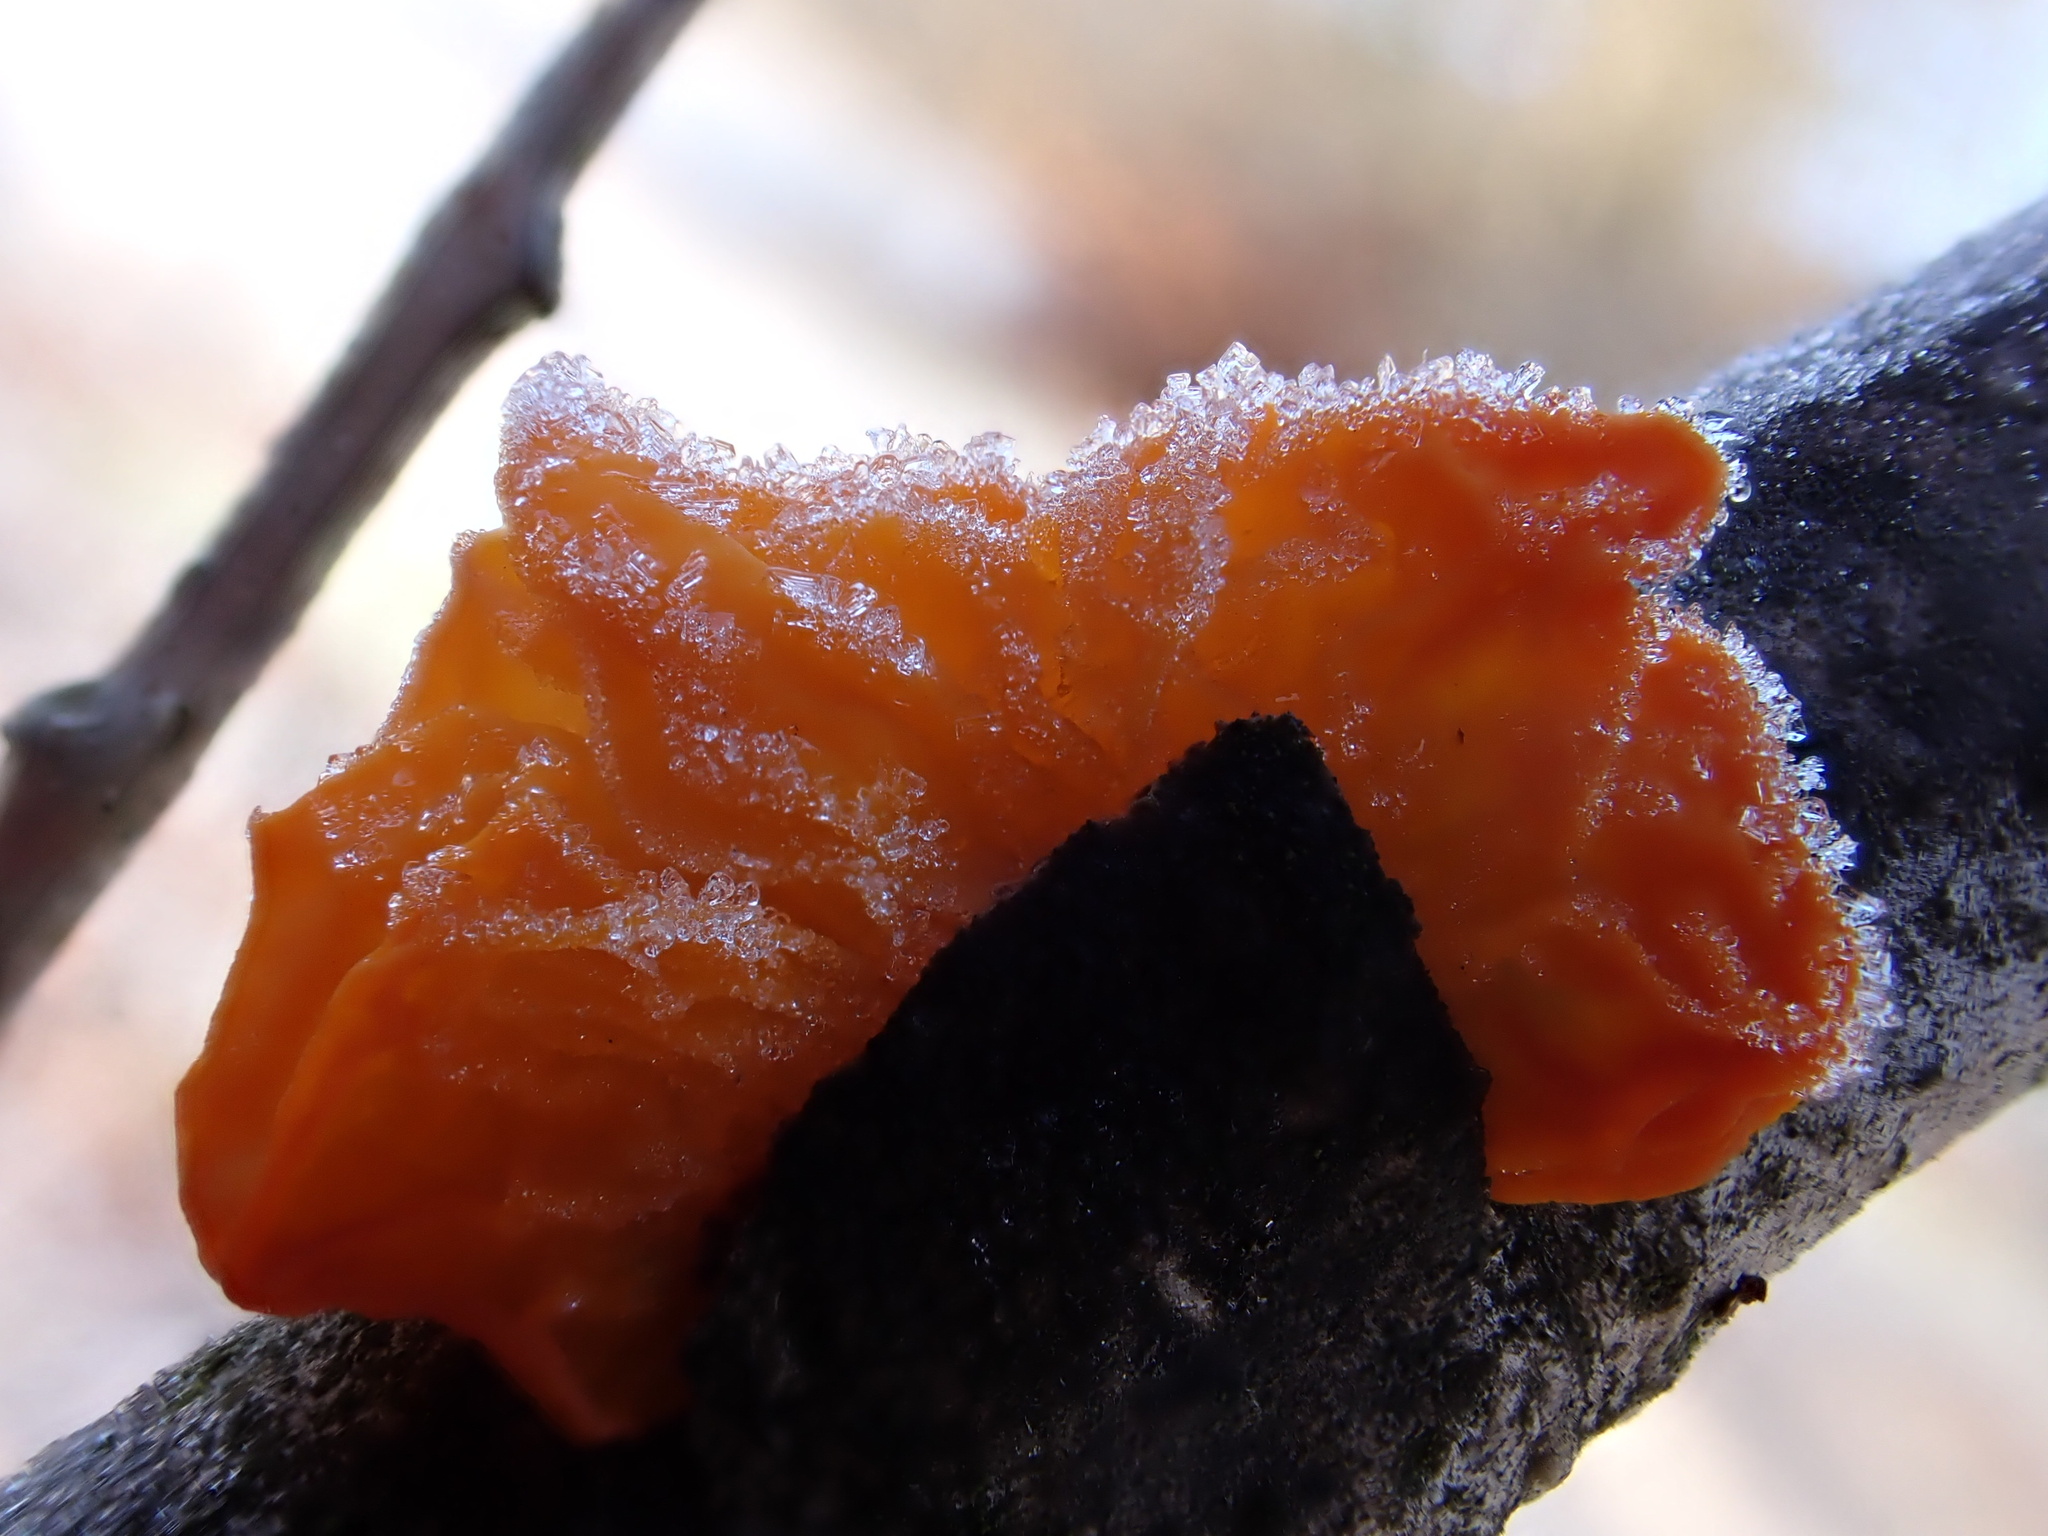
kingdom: Fungi
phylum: Basidiomycota
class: Tremellomycetes
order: Tremellales
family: Tremellaceae
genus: Tremella
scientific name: Tremella mesenterica
